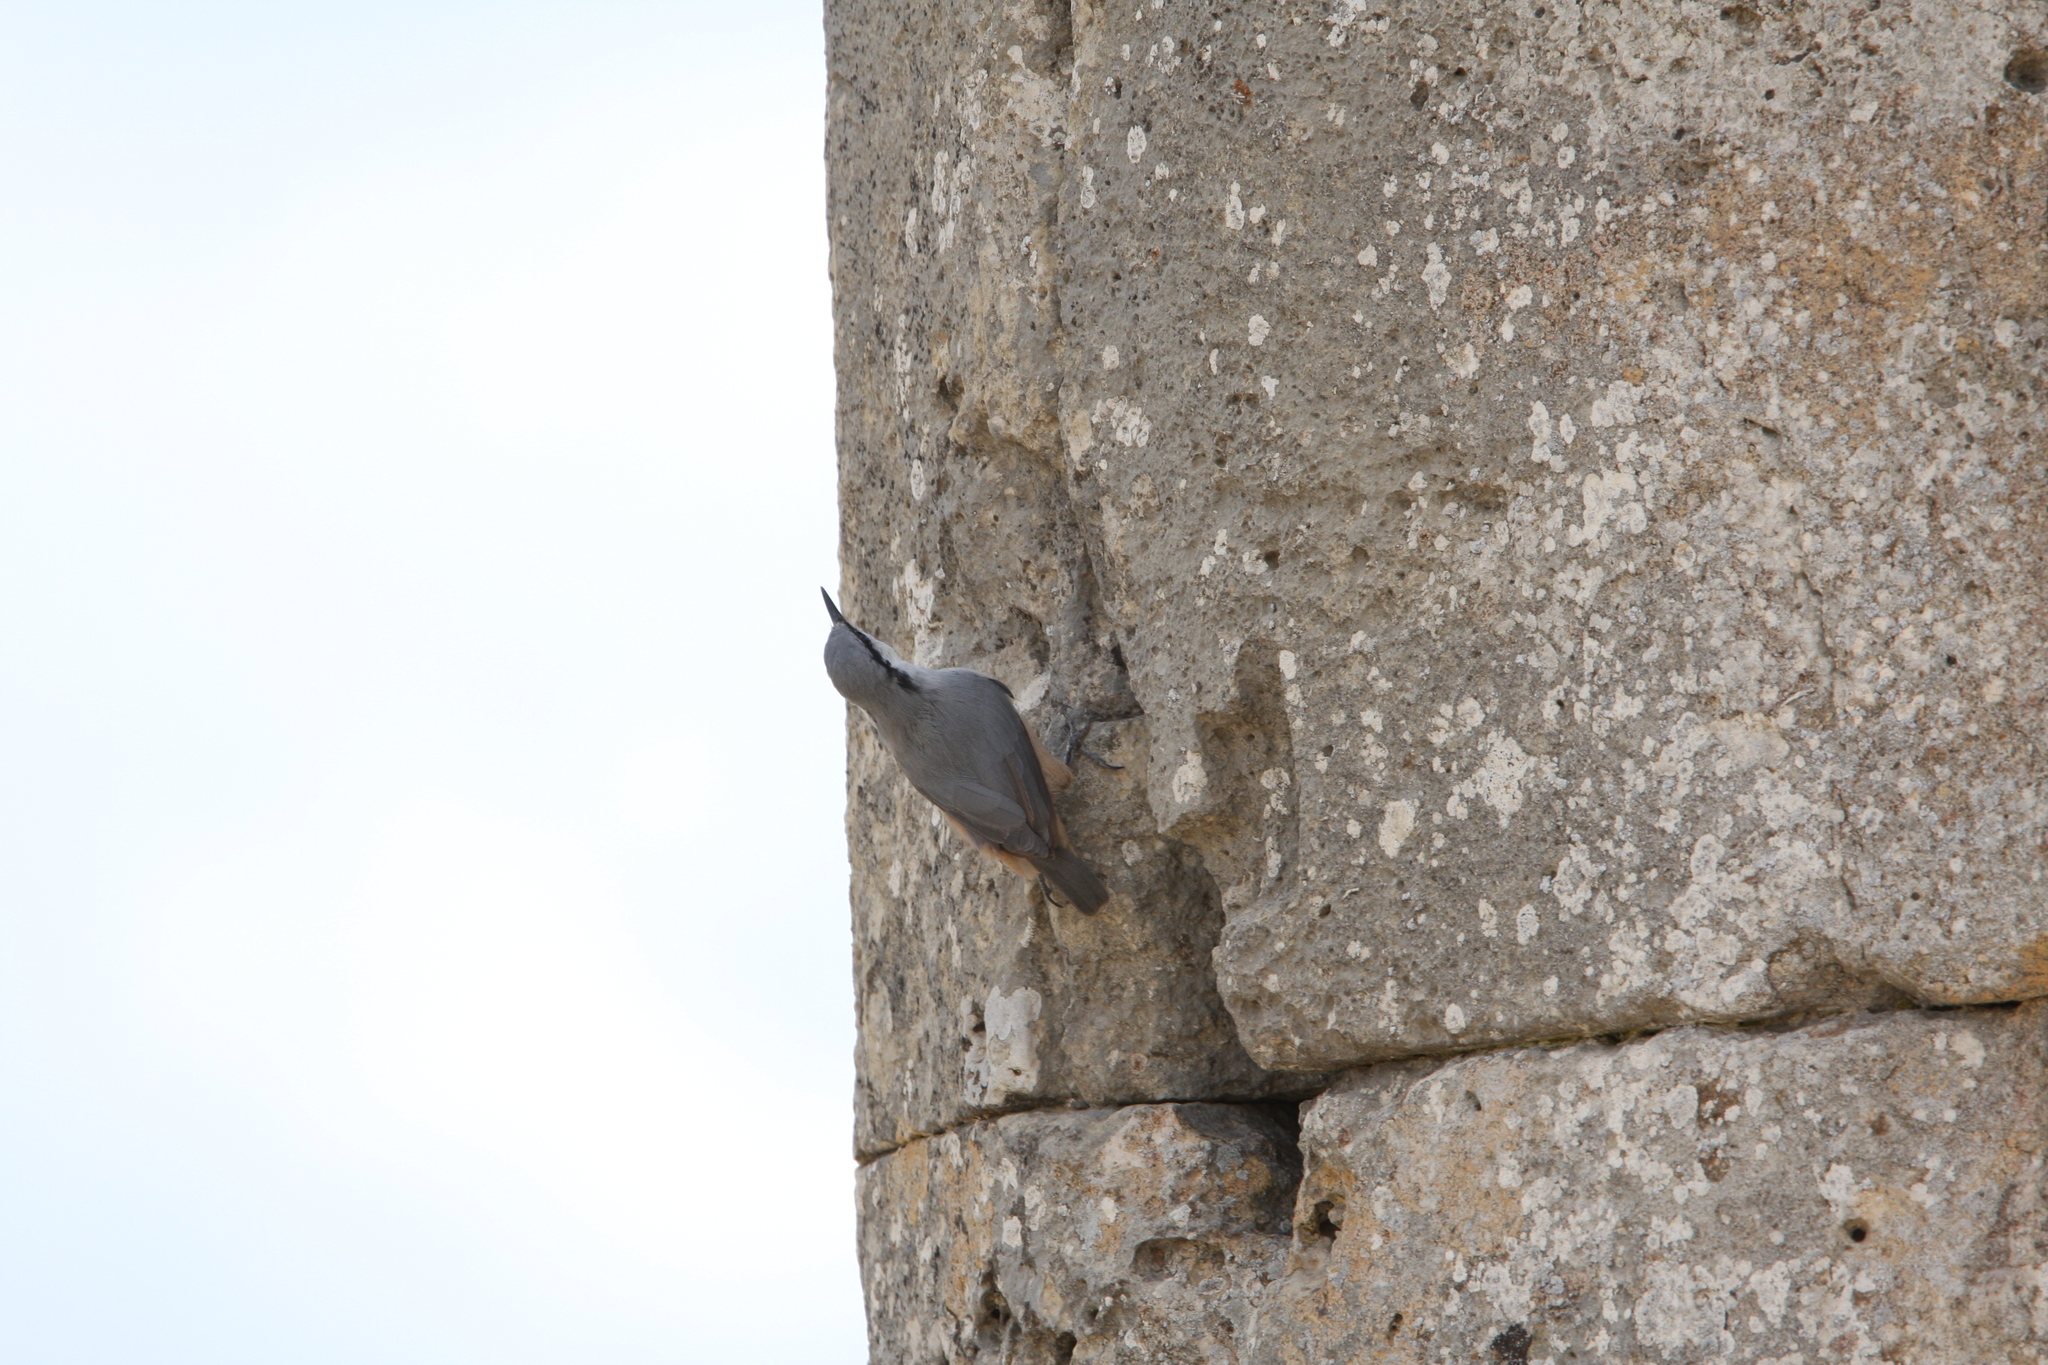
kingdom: Animalia
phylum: Chordata
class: Aves
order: Passeriformes
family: Sittidae
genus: Sitta
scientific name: Sitta neumayer
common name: Western rock nuthatch
